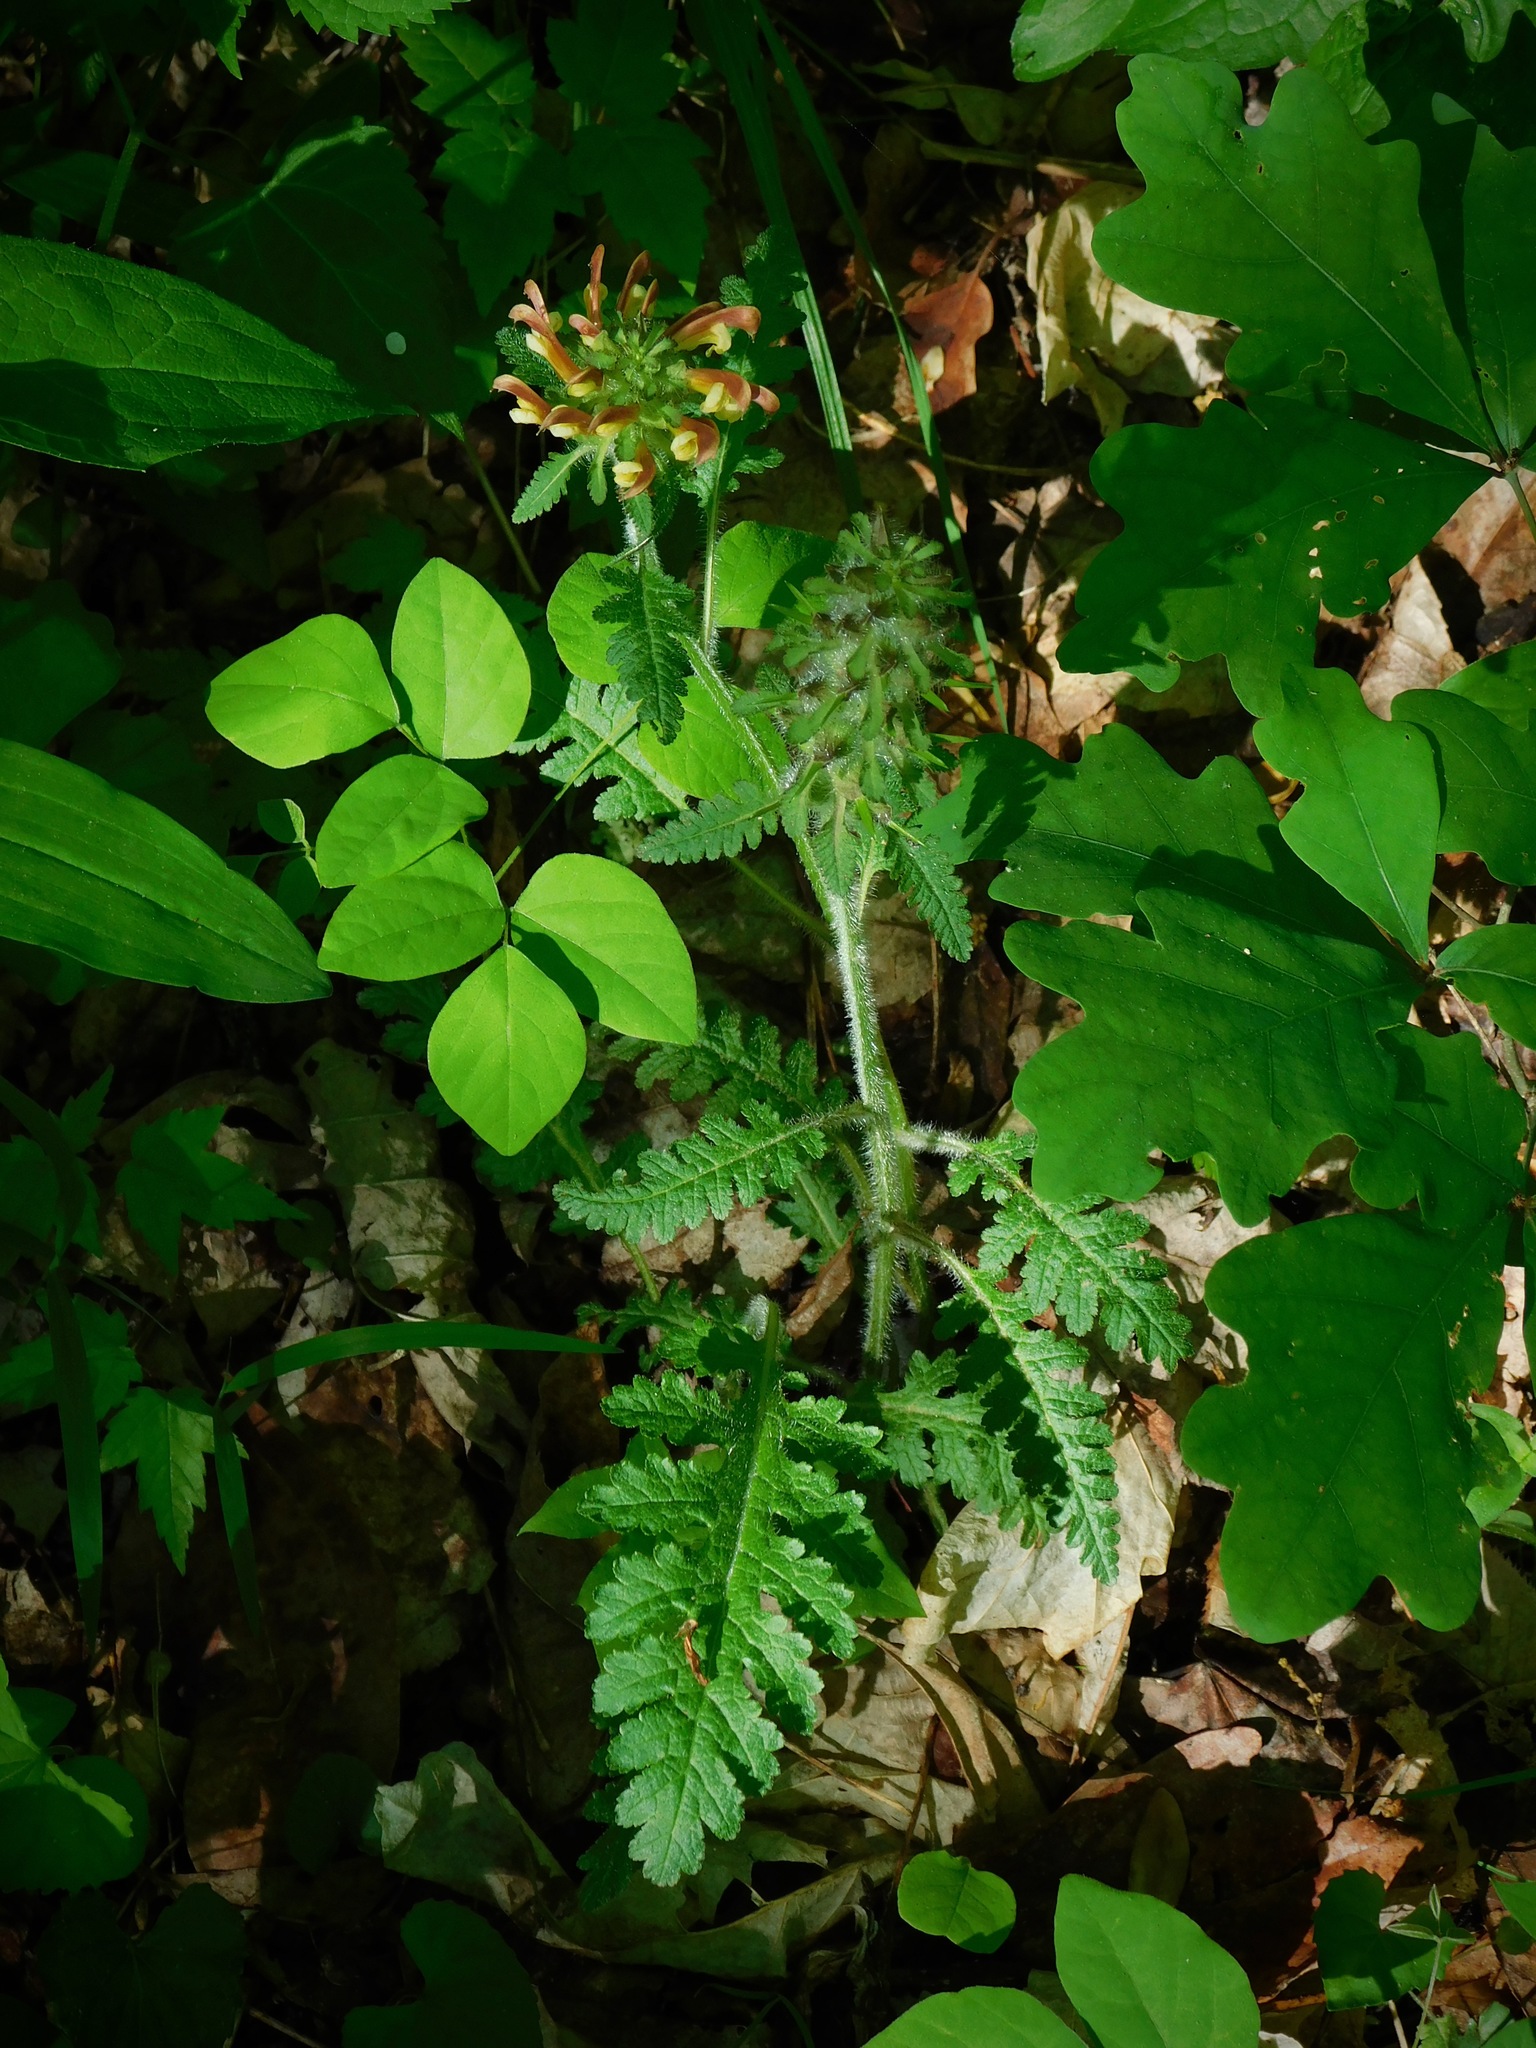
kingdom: Plantae
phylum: Tracheophyta
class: Magnoliopsida
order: Lamiales
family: Orobanchaceae
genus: Pedicularis
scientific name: Pedicularis canadensis
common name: Early lousewort
